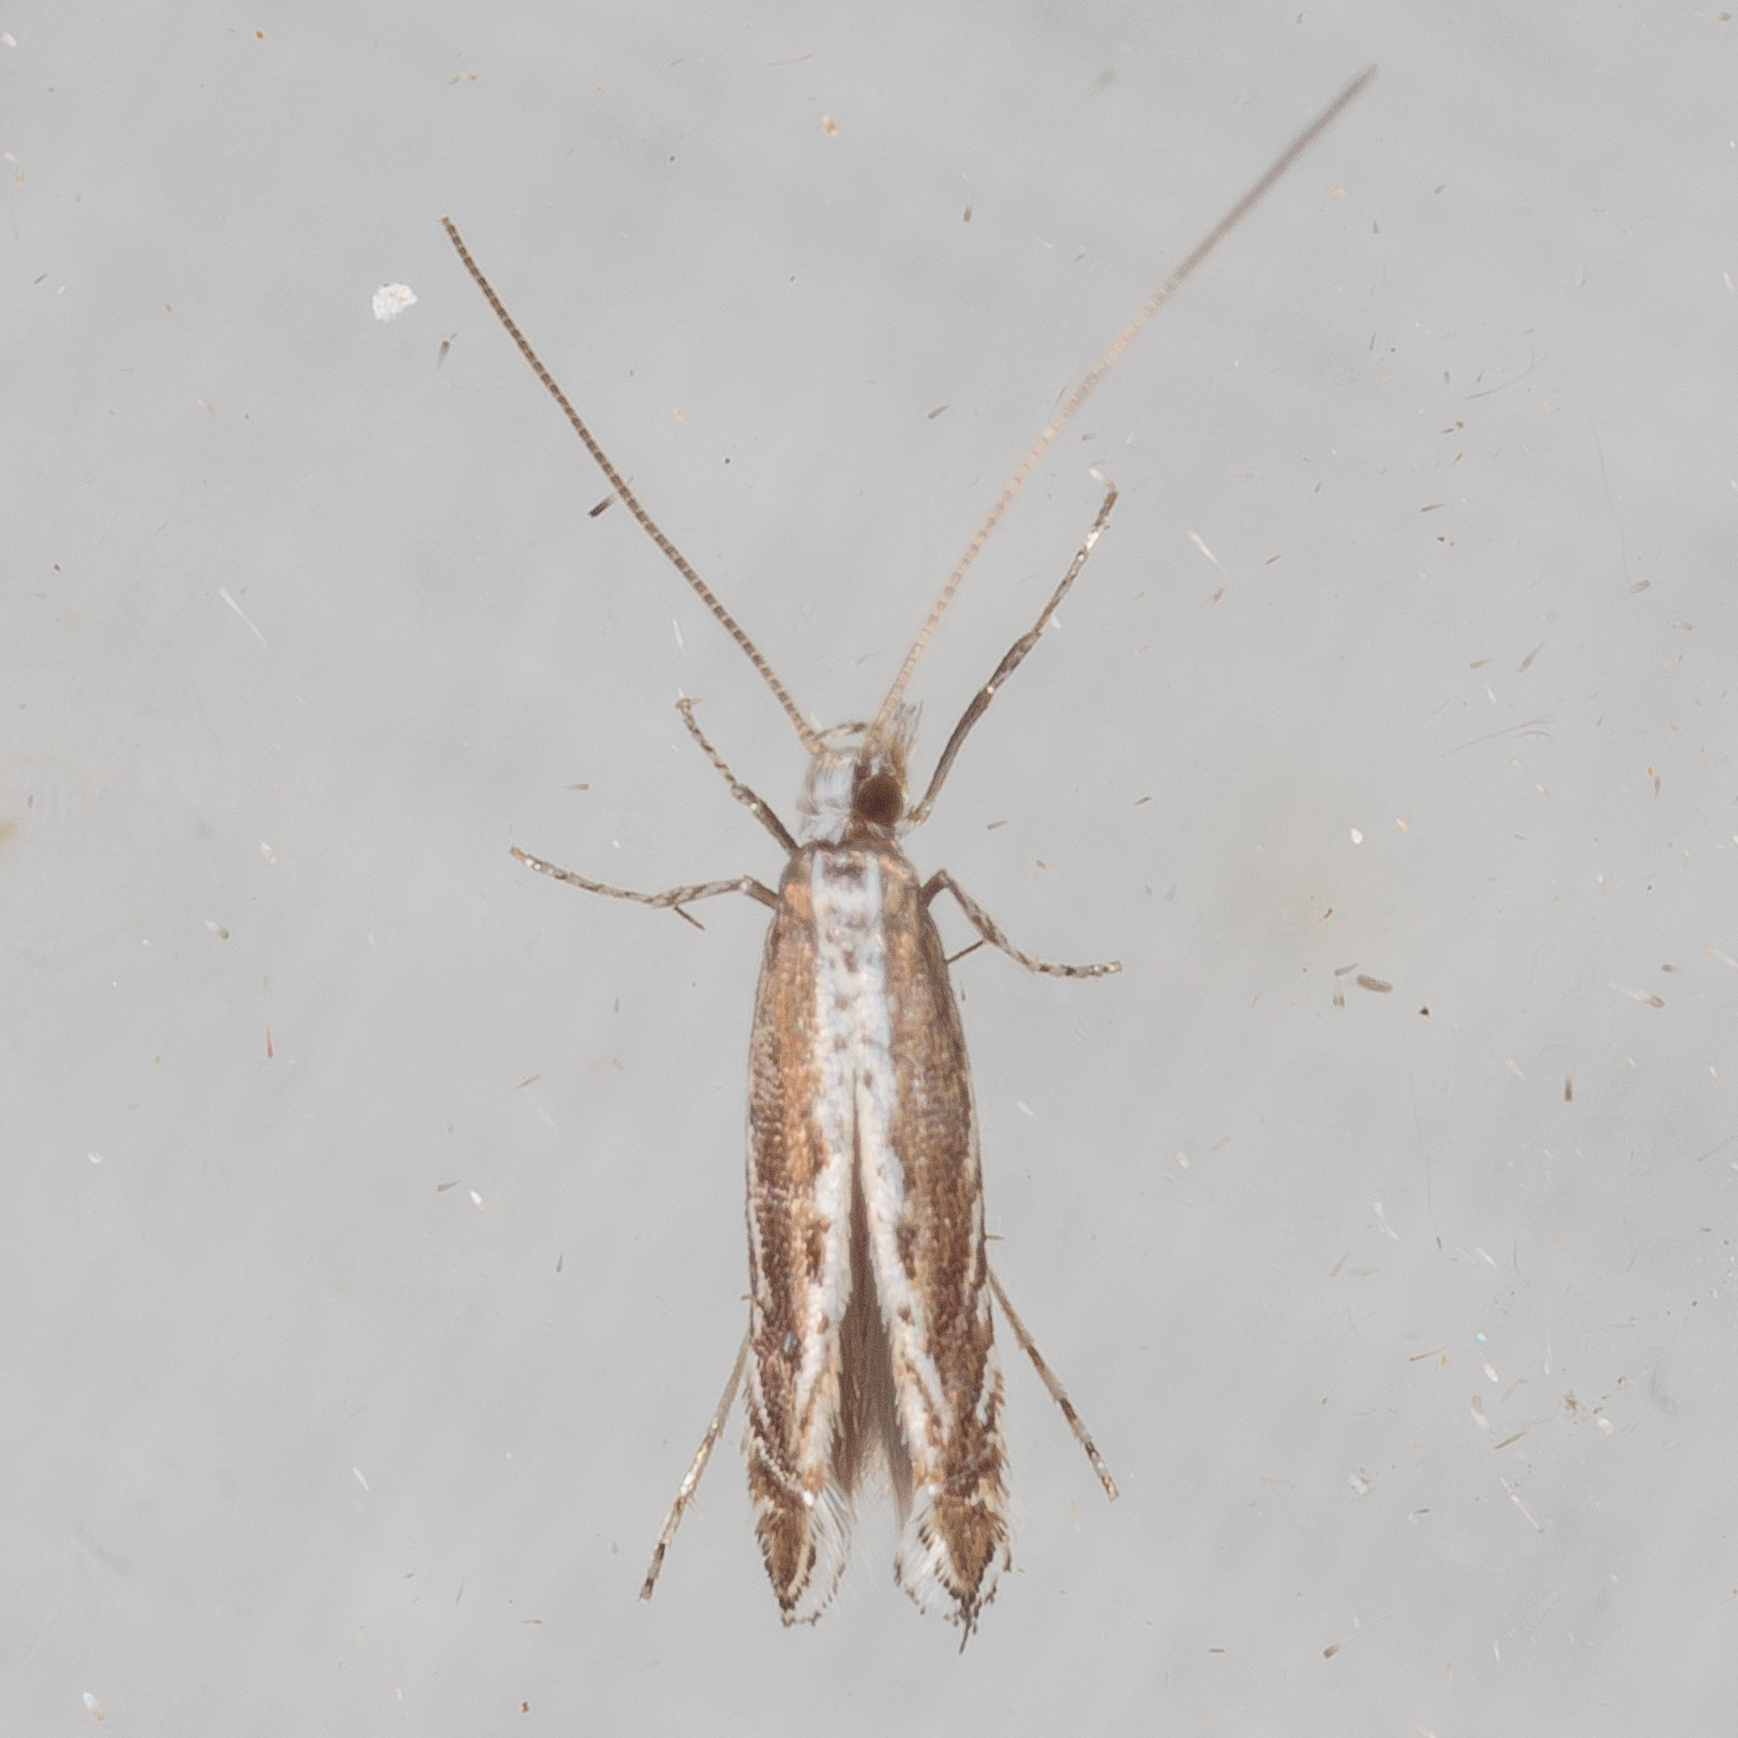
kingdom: Plantae
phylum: Rhodophyta
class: Florideophyceae
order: Gracilariales
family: Gracilariaceae
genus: Gracilaria
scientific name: Gracilaria
